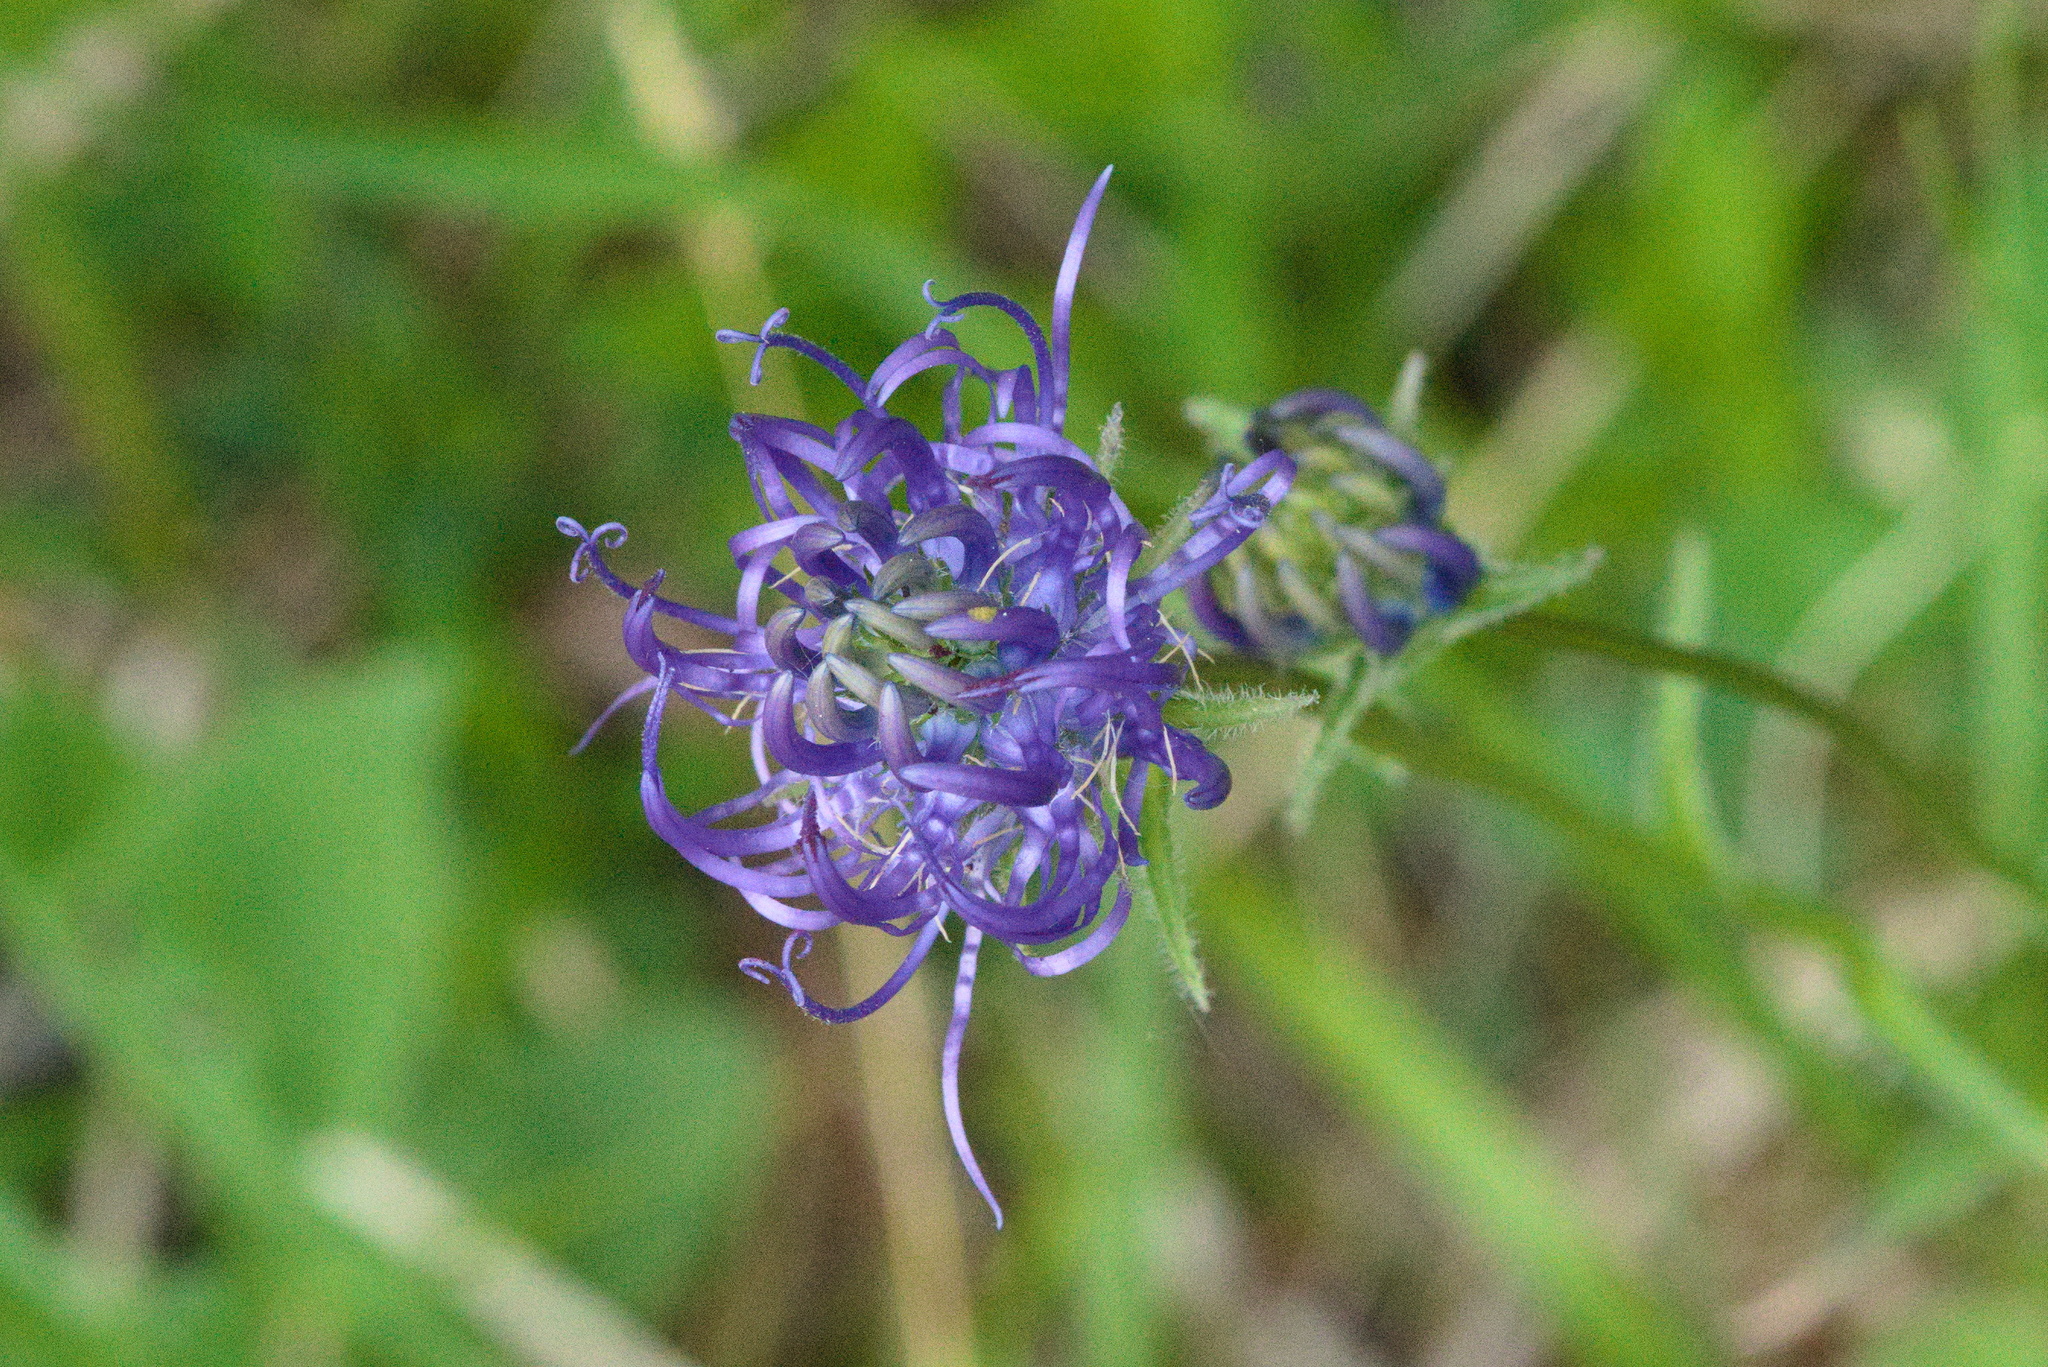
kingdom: Plantae
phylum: Tracheophyta
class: Magnoliopsida
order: Asterales
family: Campanulaceae
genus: Phyteuma
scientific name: Phyteuma orbiculare
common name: Round-headed rampion
